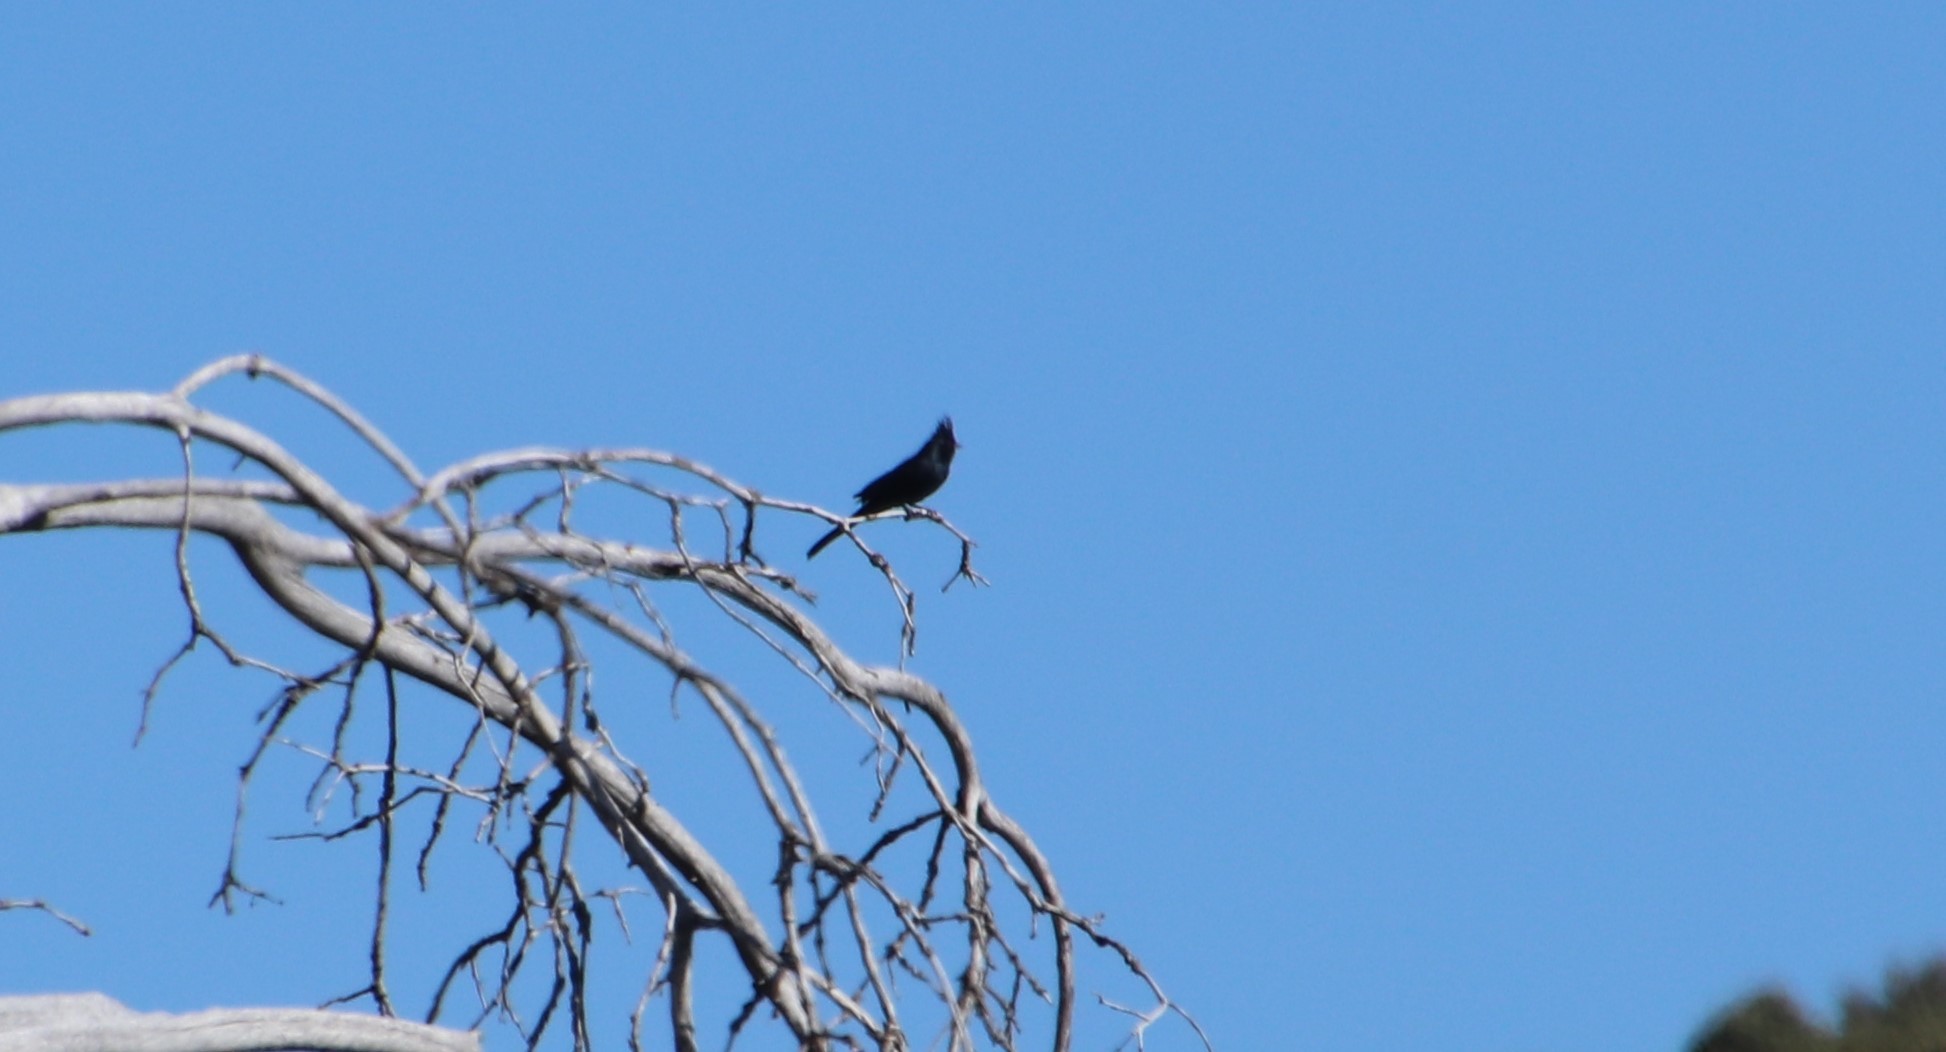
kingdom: Animalia
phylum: Chordata
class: Aves
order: Passeriformes
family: Ptilogonatidae
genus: Phainopepla
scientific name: Phainopepla nitens
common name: Phainopepla
